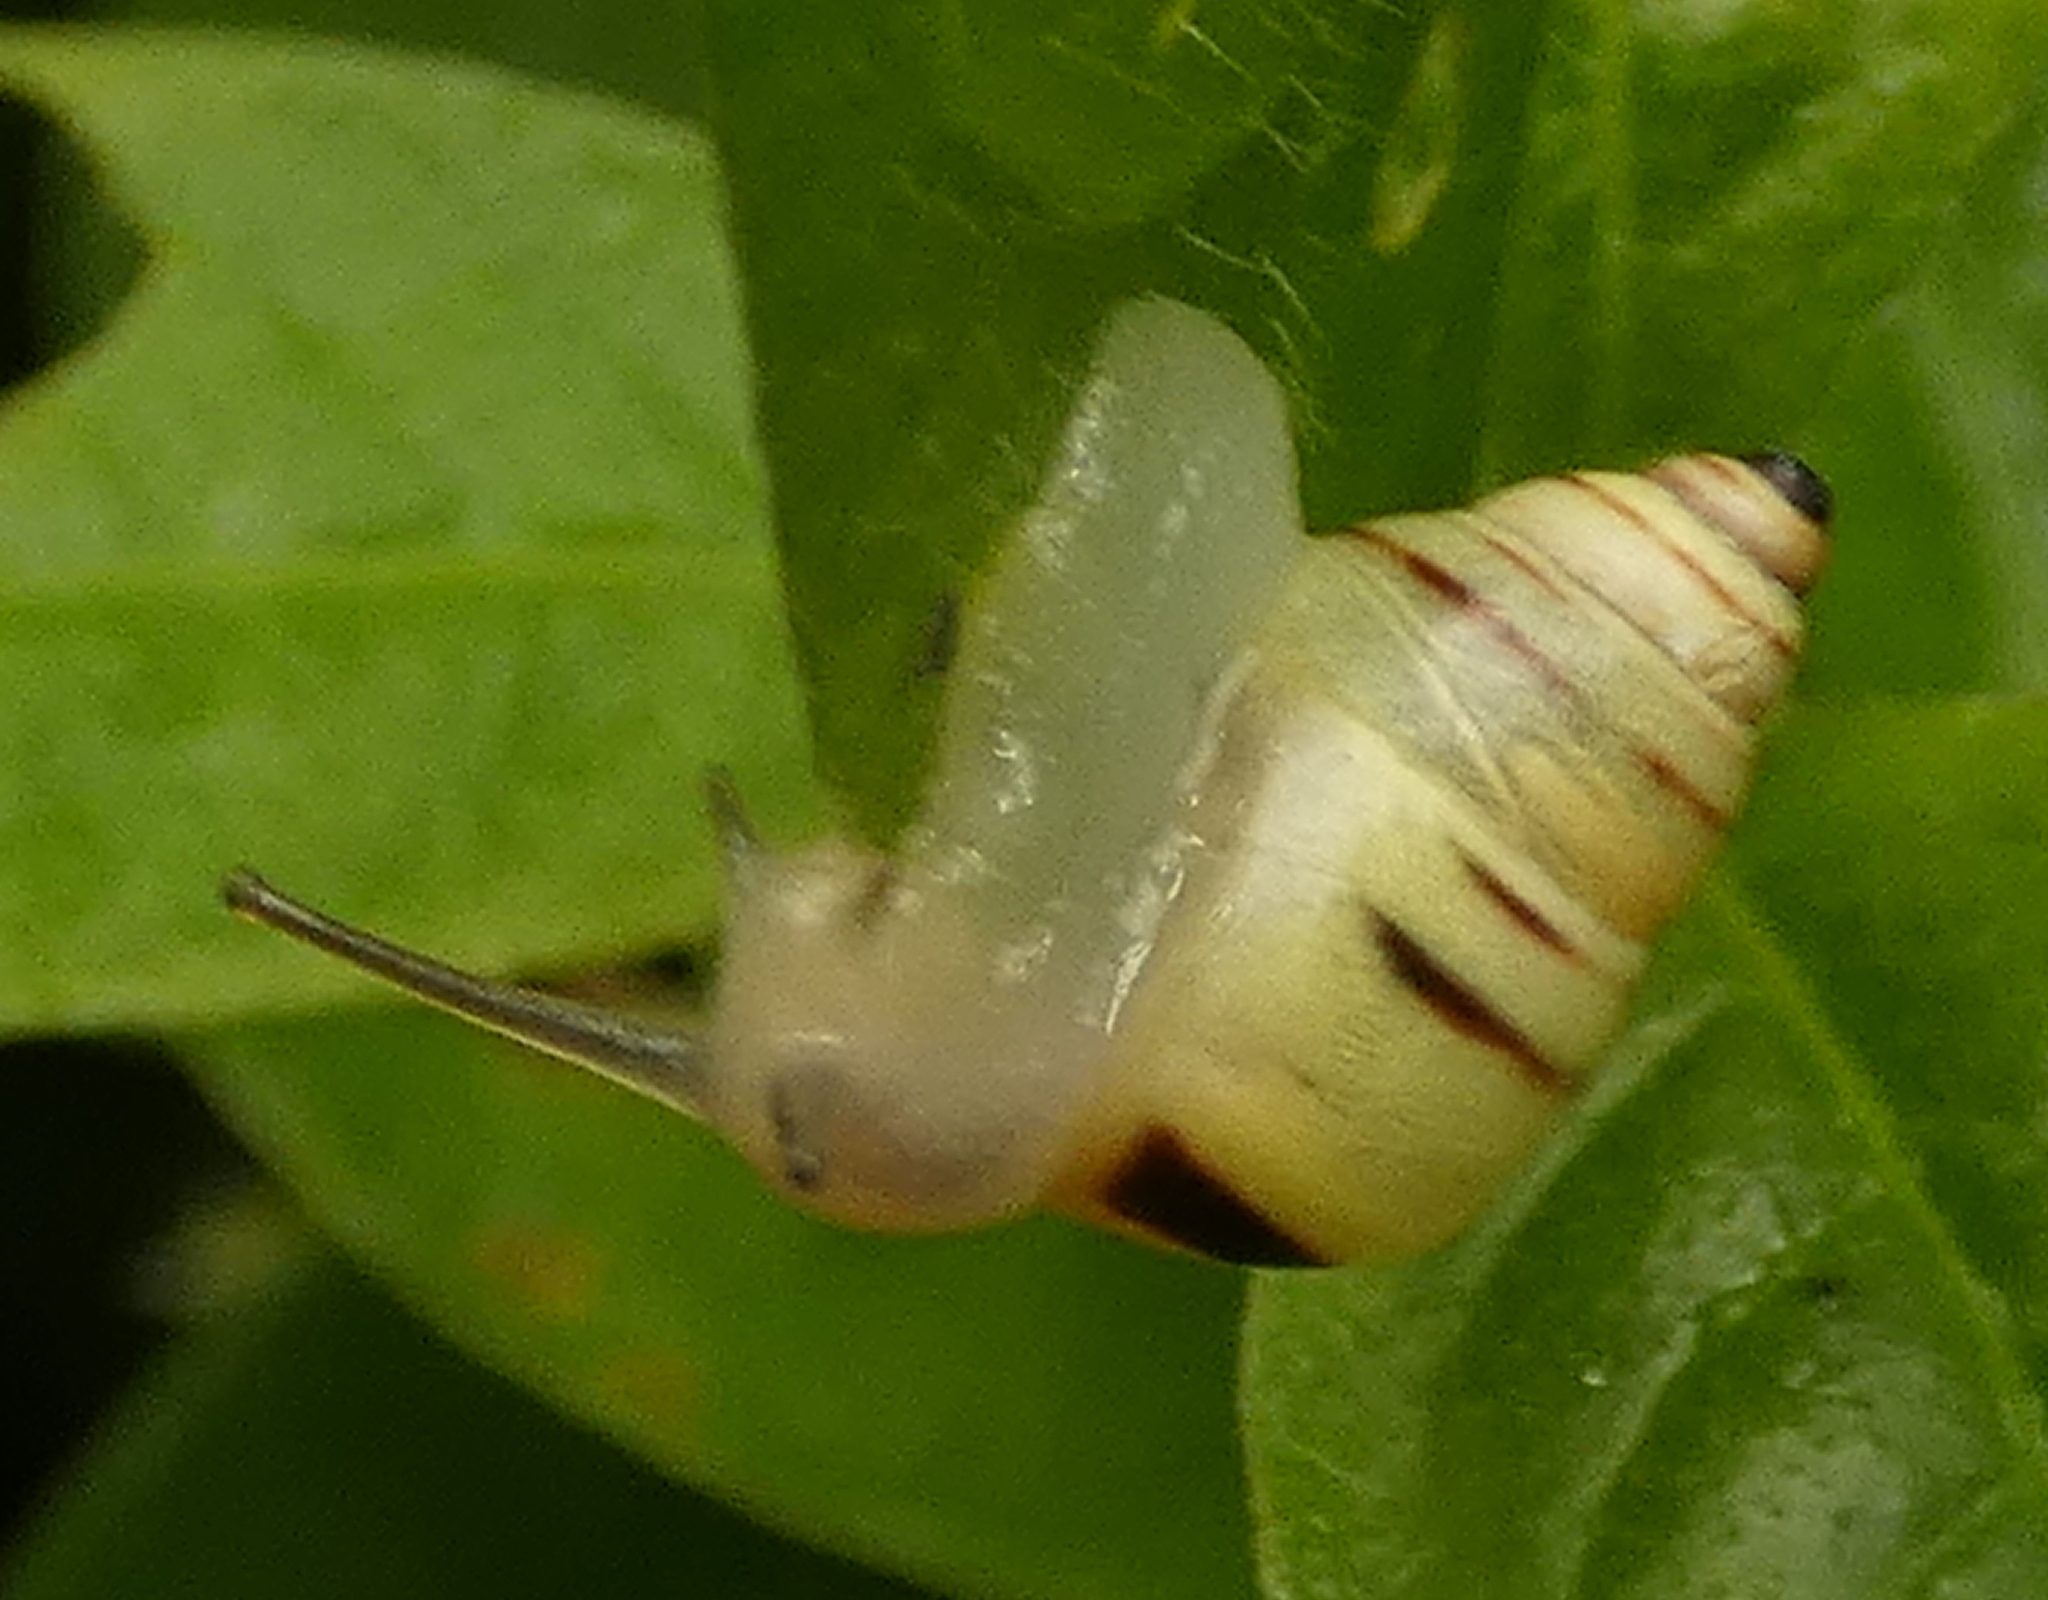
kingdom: Animalia
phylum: Mollusca
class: Gastropoda
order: Stylommatophora
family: Bulimulidae
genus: Drymaeus
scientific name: Drymaeus
